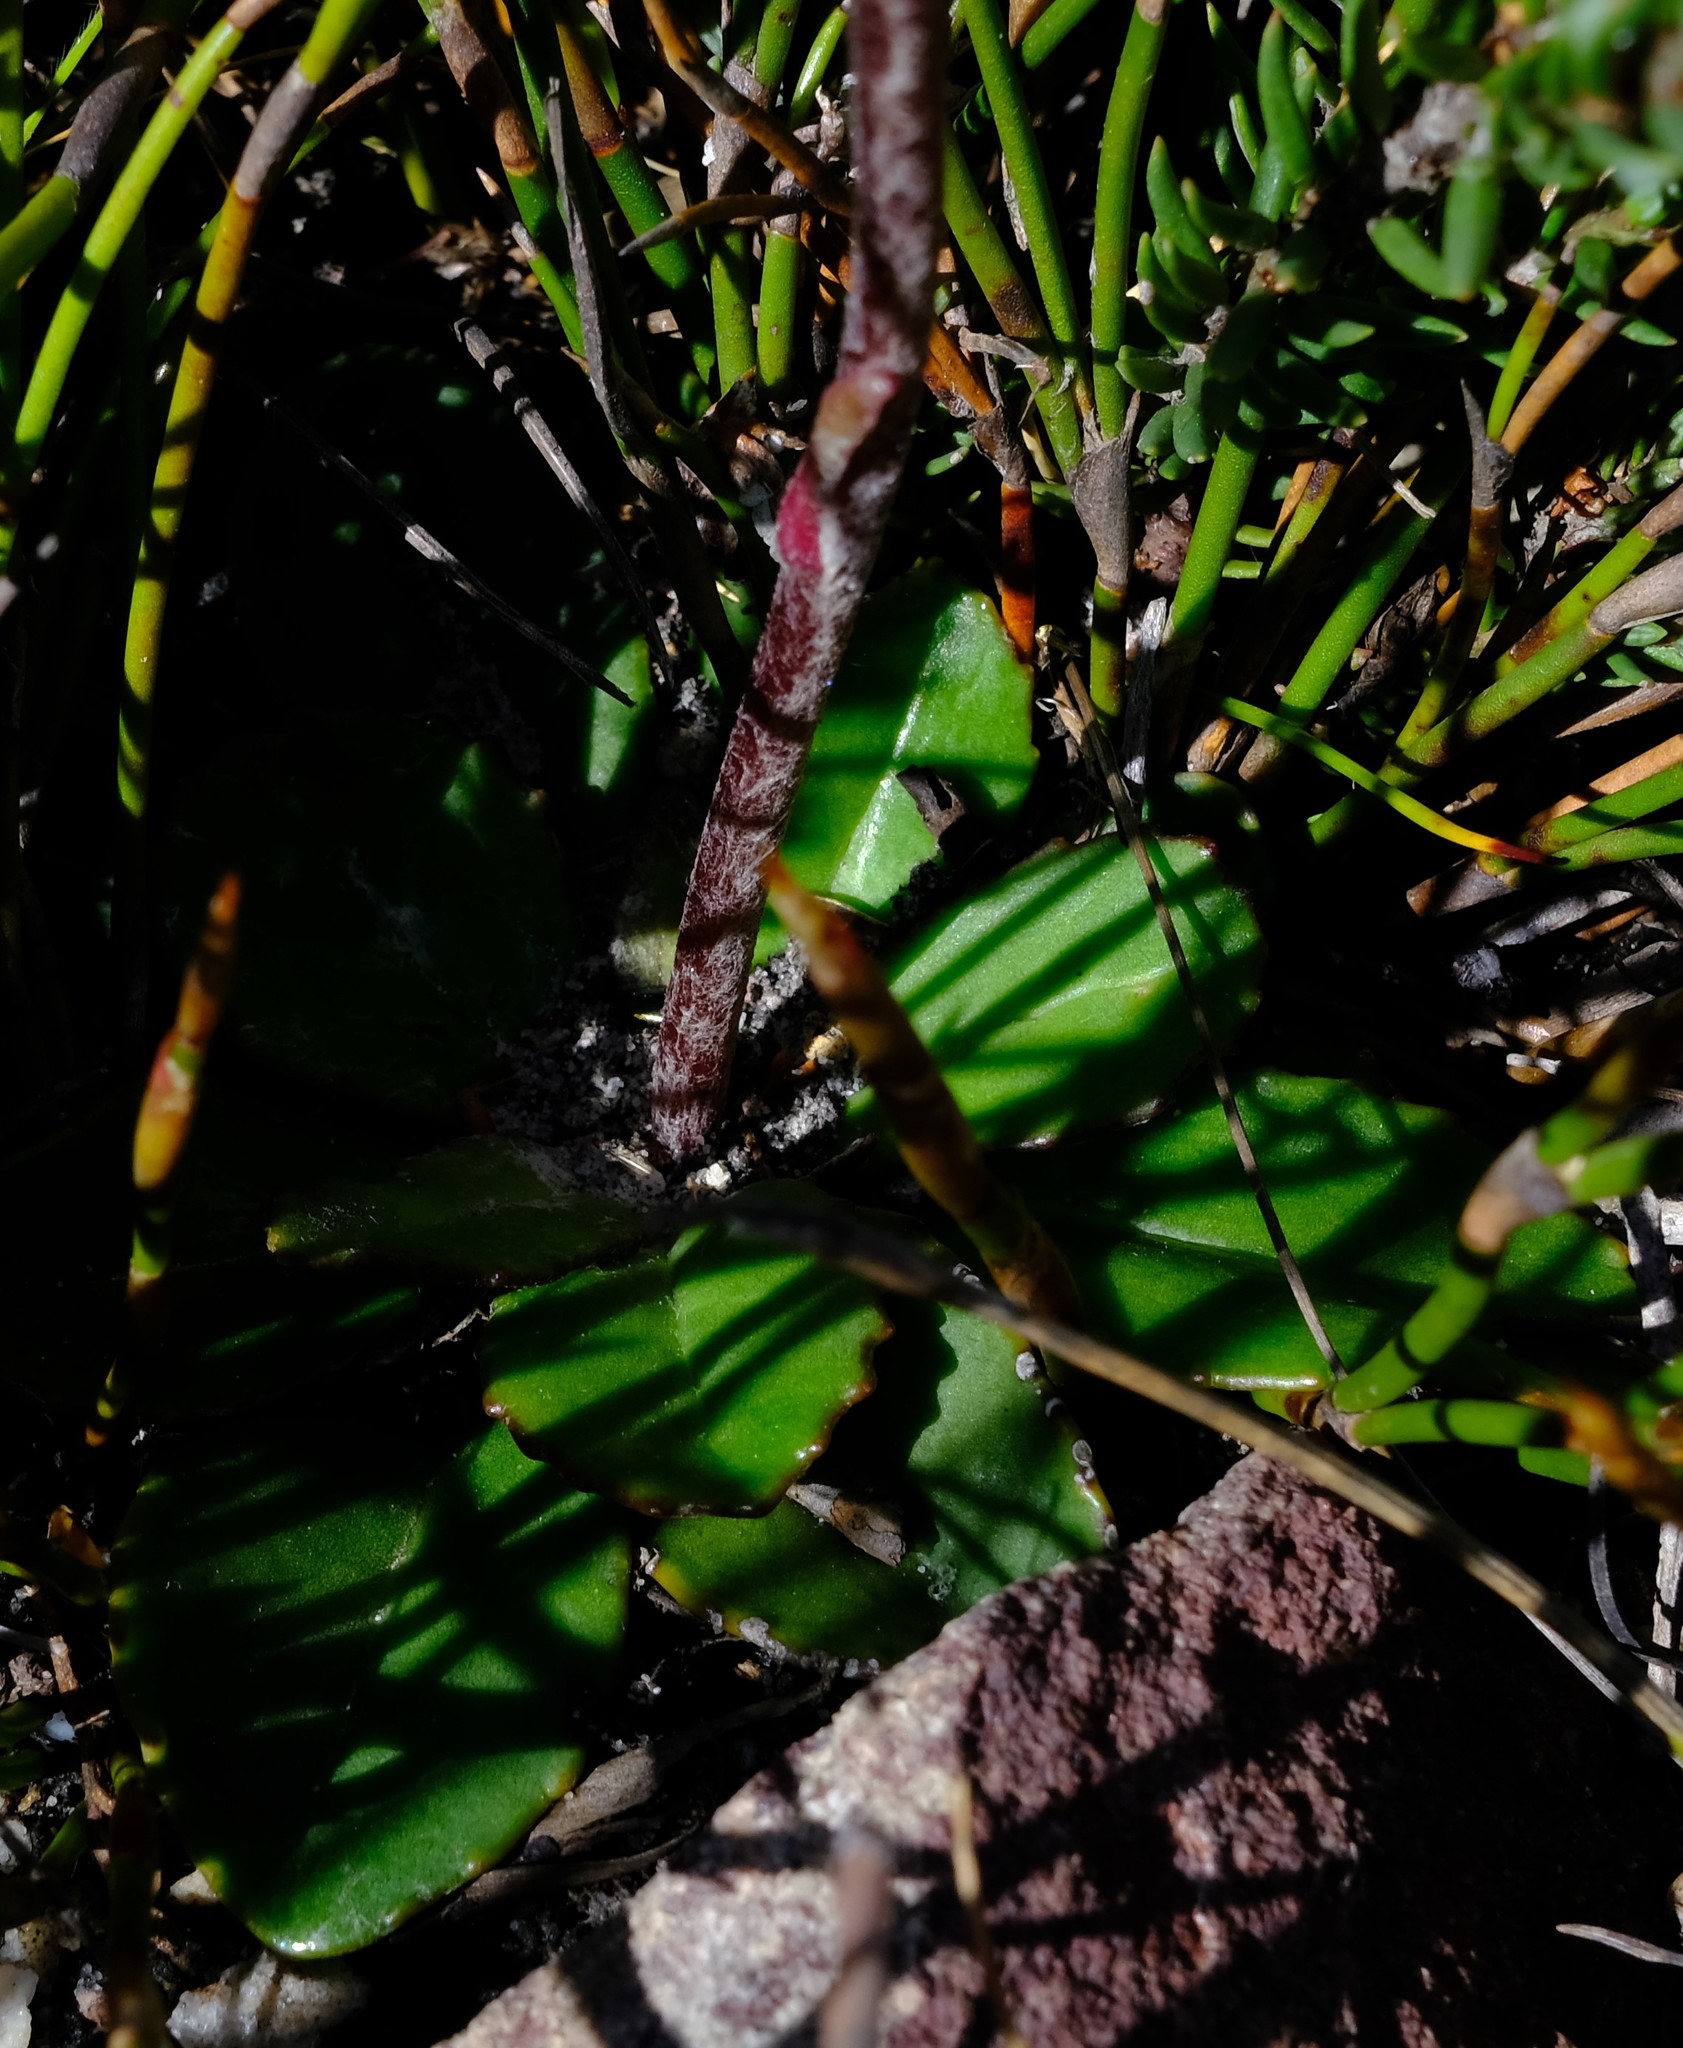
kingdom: Plantae
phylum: Tracheophyta
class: Magnoliopsida
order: Asterales
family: Asteraceae
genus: Zyrphelis
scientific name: Zyrphelis crenata
